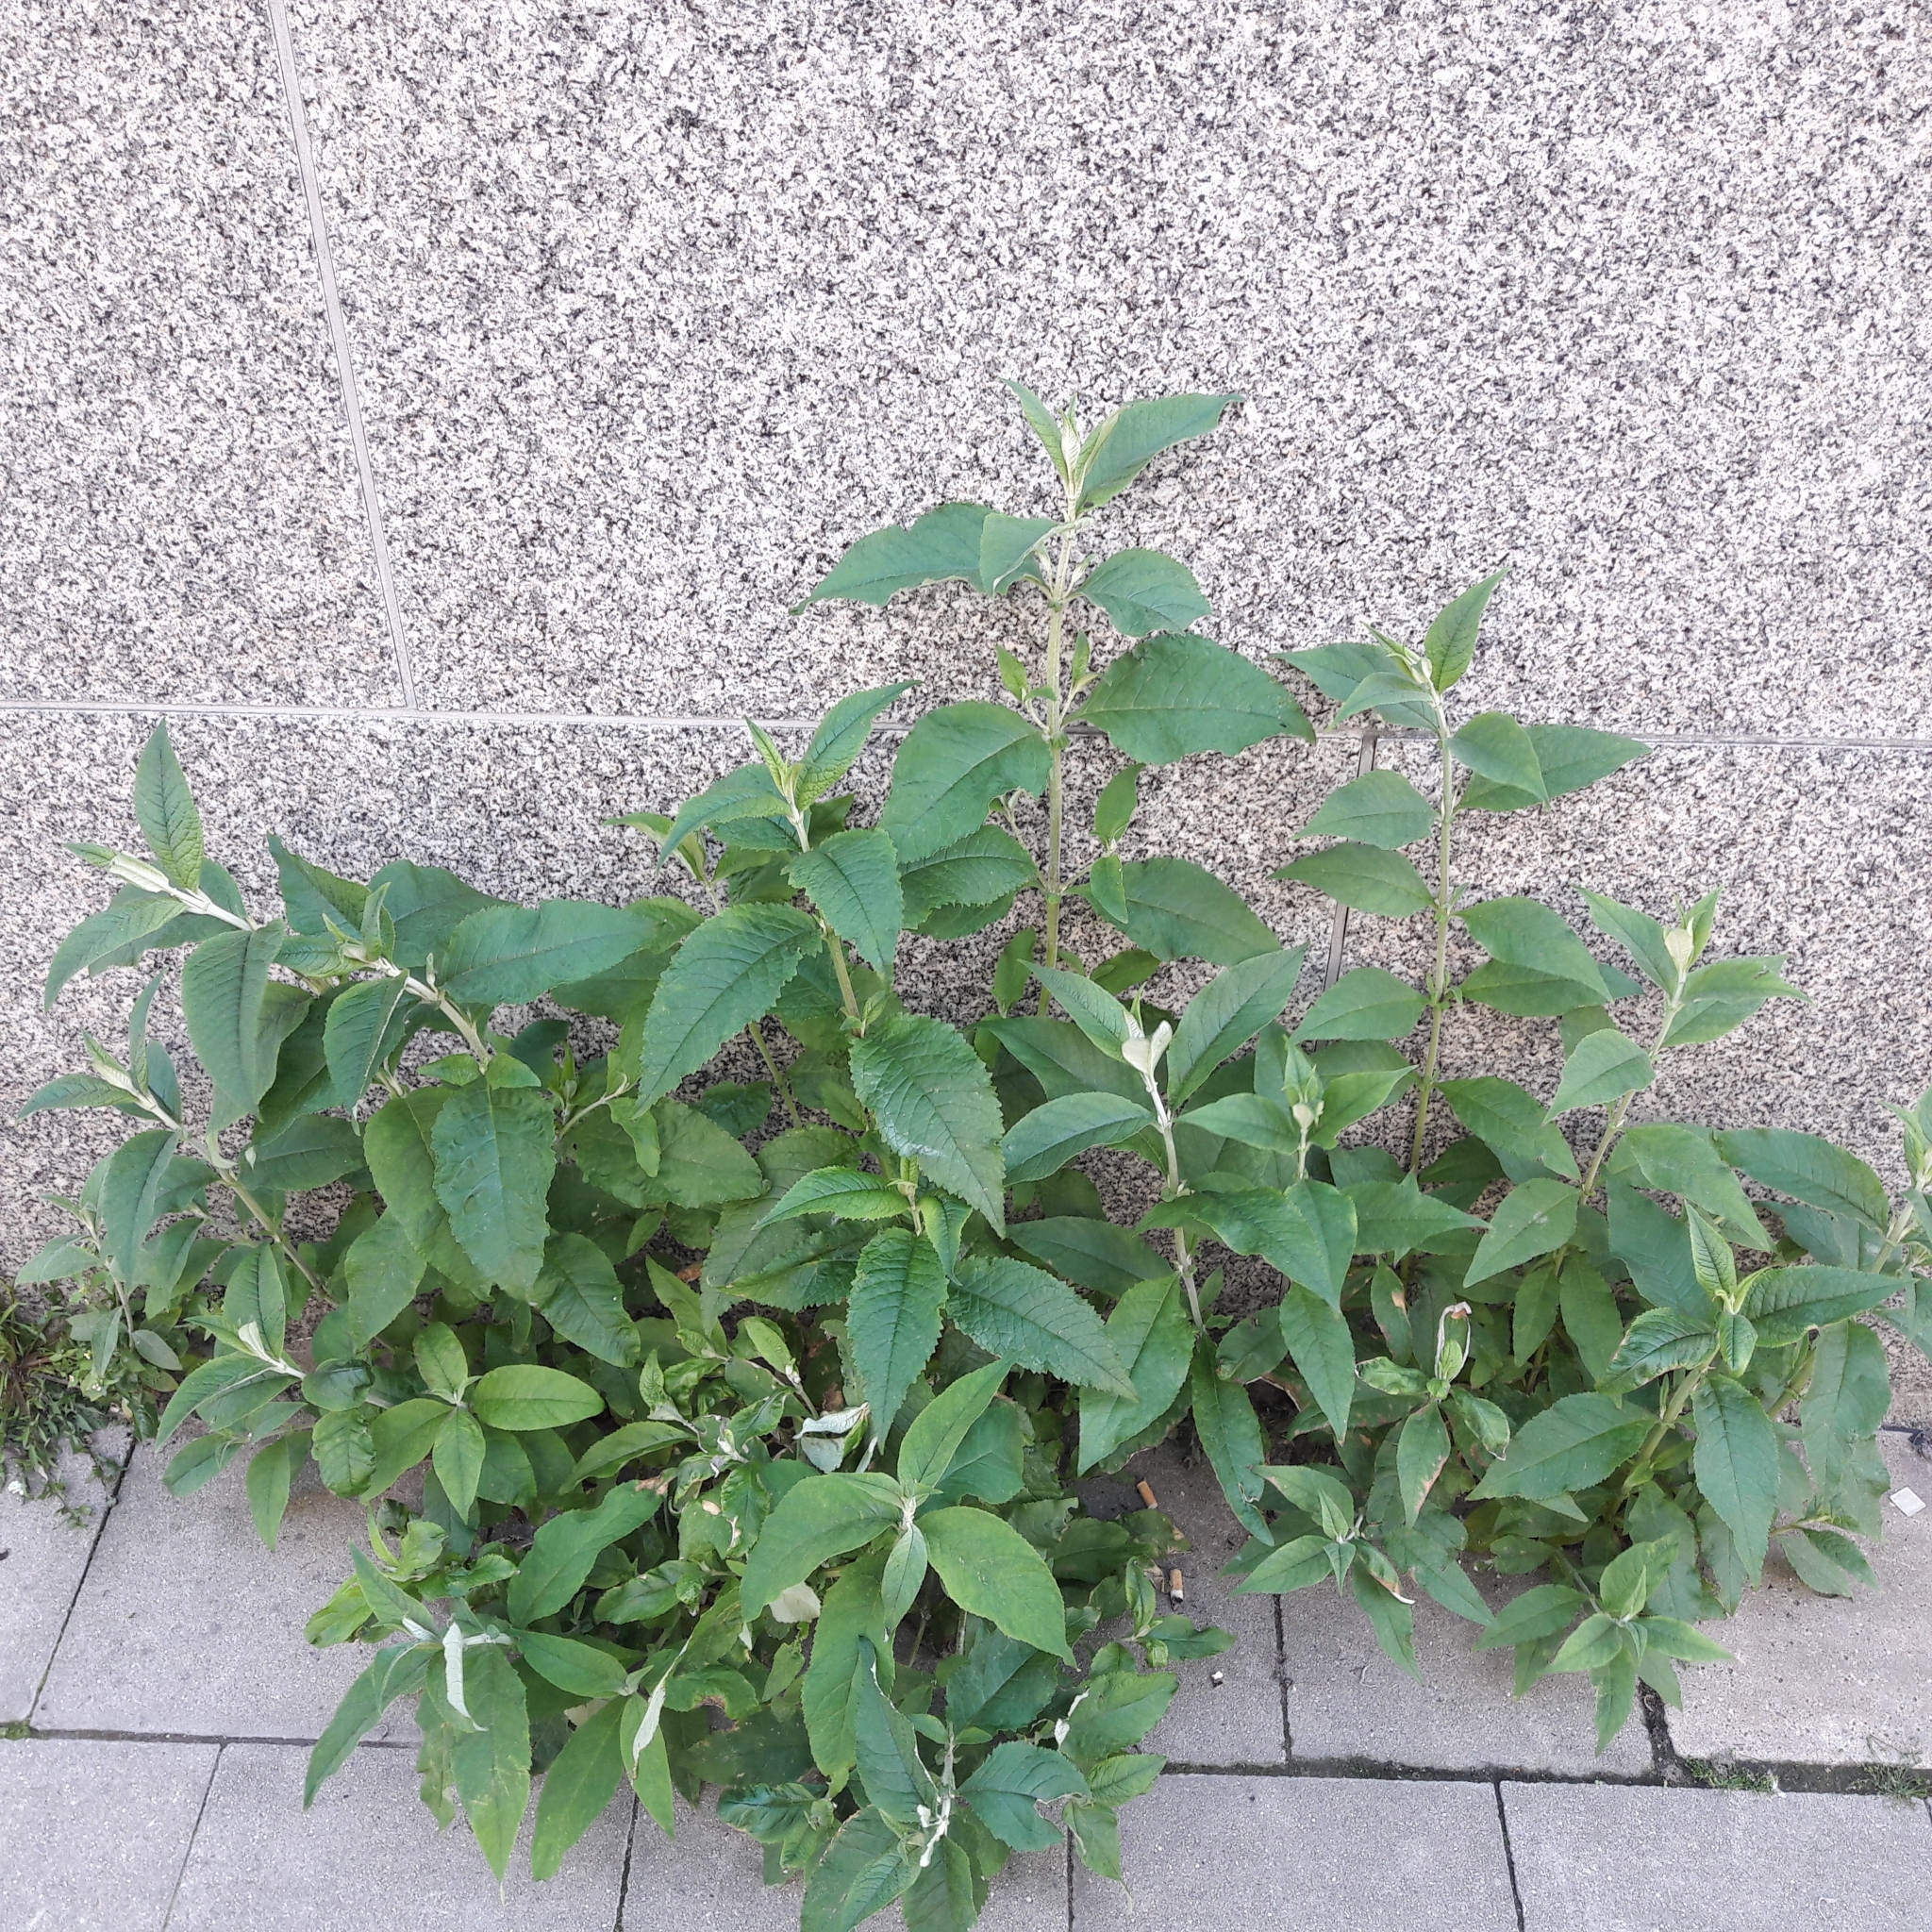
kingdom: Plantae
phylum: Tracheophyta
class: Magnoliopsida
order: Lamiales
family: Scrophulariaceae
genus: Buddleja
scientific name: Buddleja davidii
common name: Butterfly-bush
